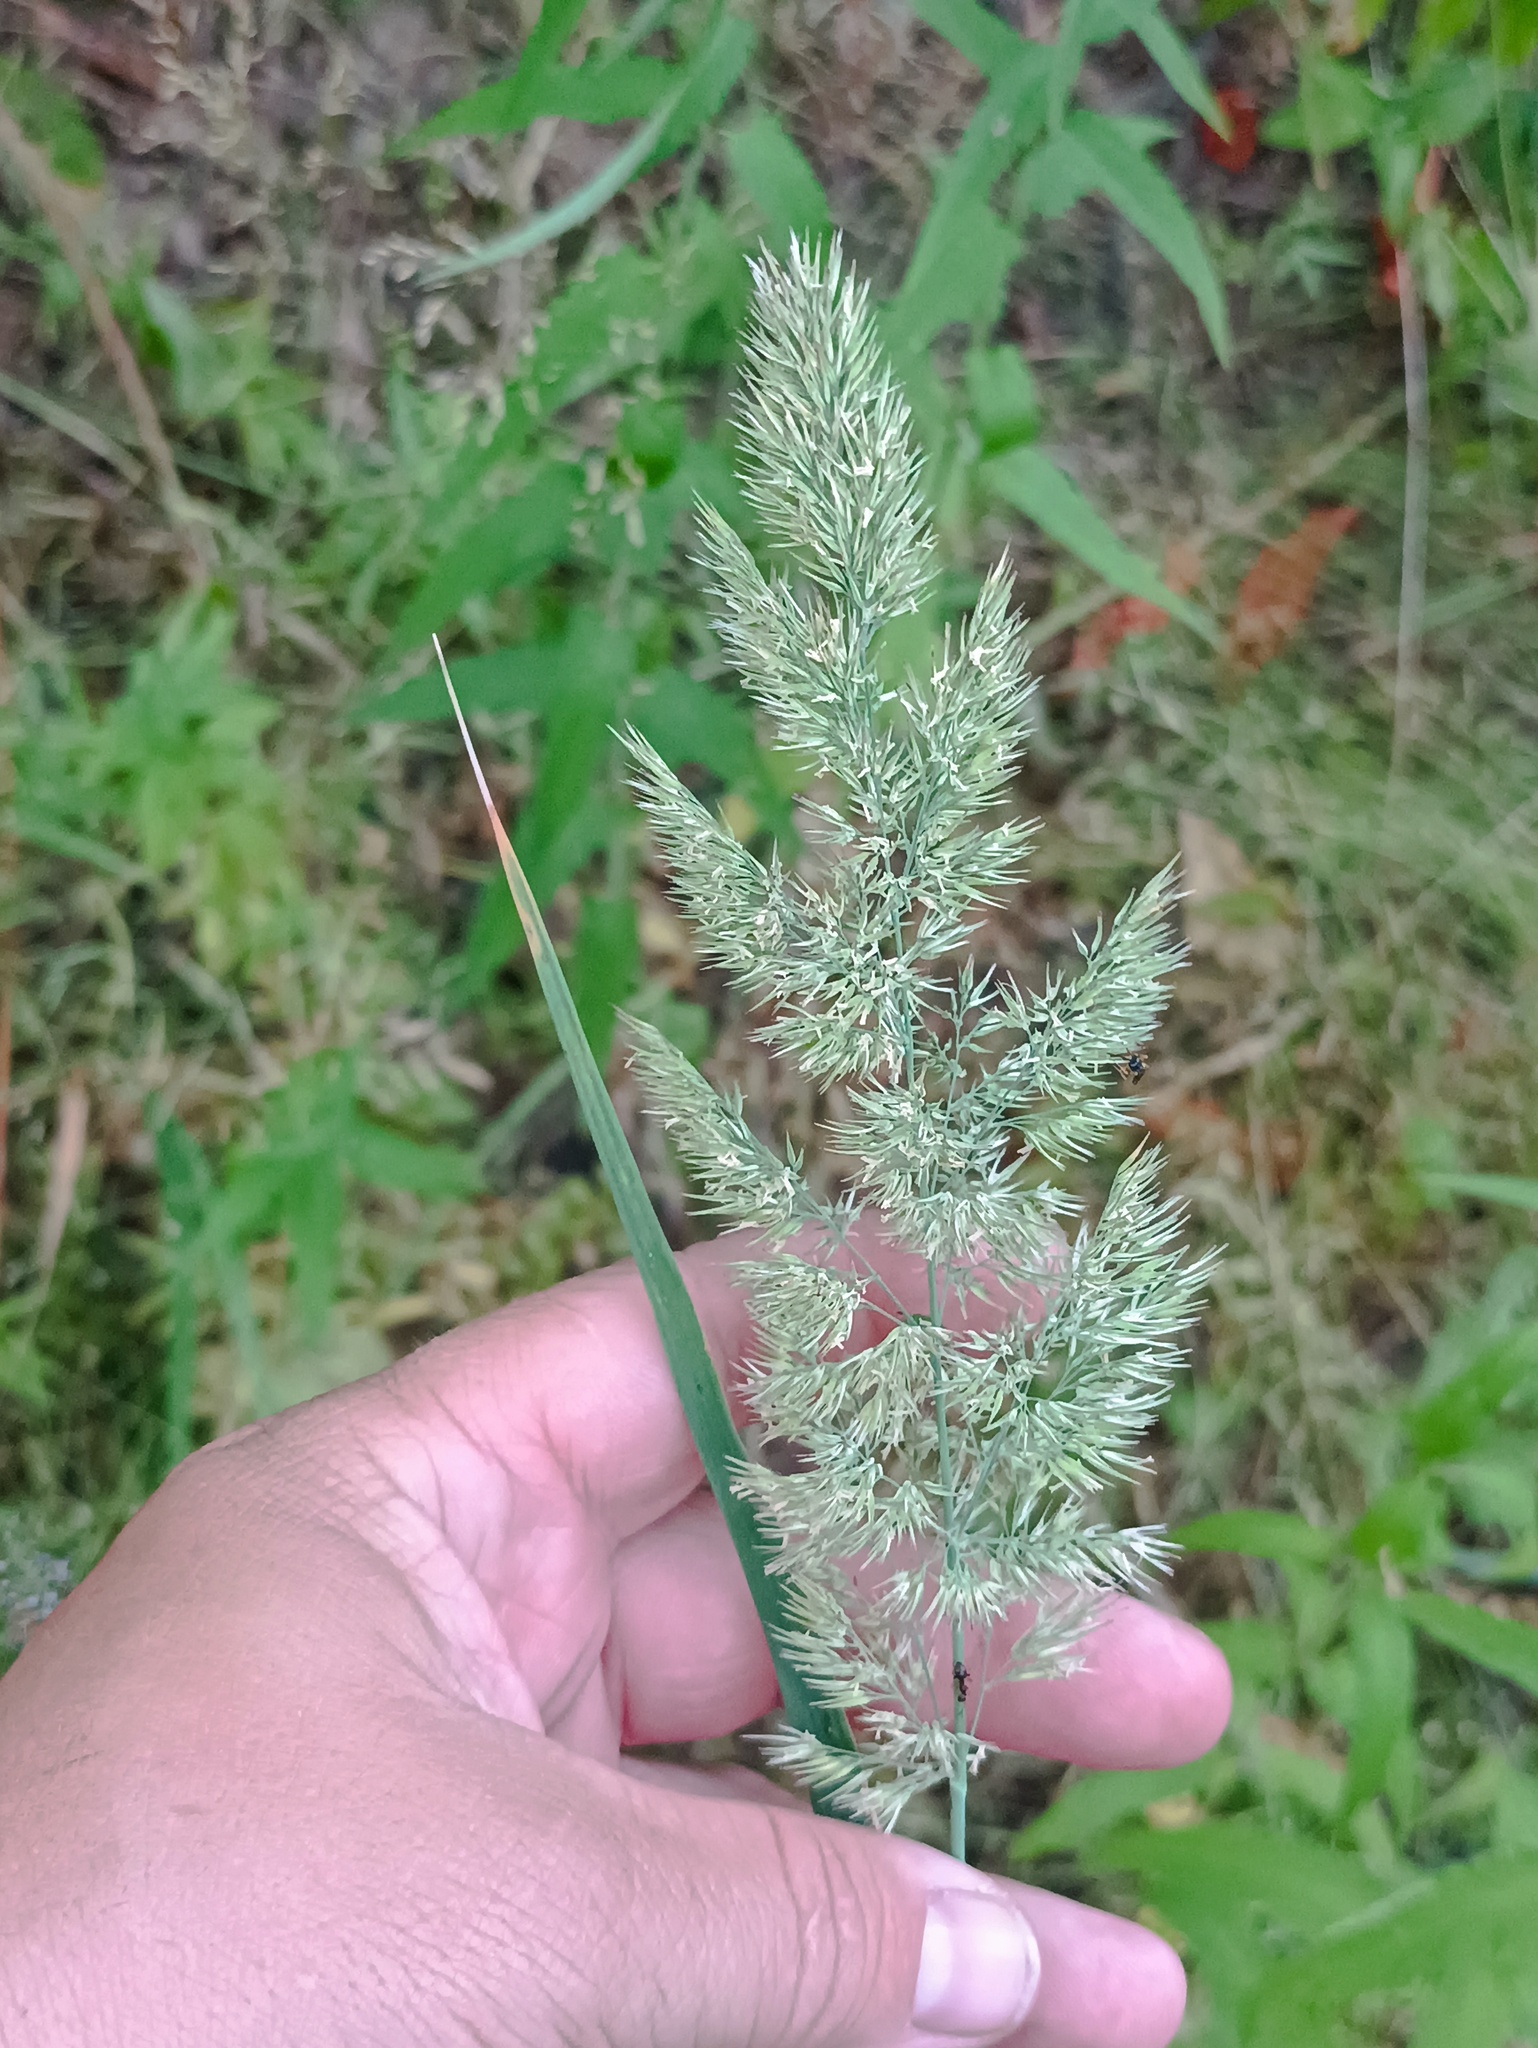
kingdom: Plantae
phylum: Tracheophyta
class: Liliopsida
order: Poales
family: Poaceae
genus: Calamagrostis
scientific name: Calamagrostis epigejos
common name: Wood small-reed
